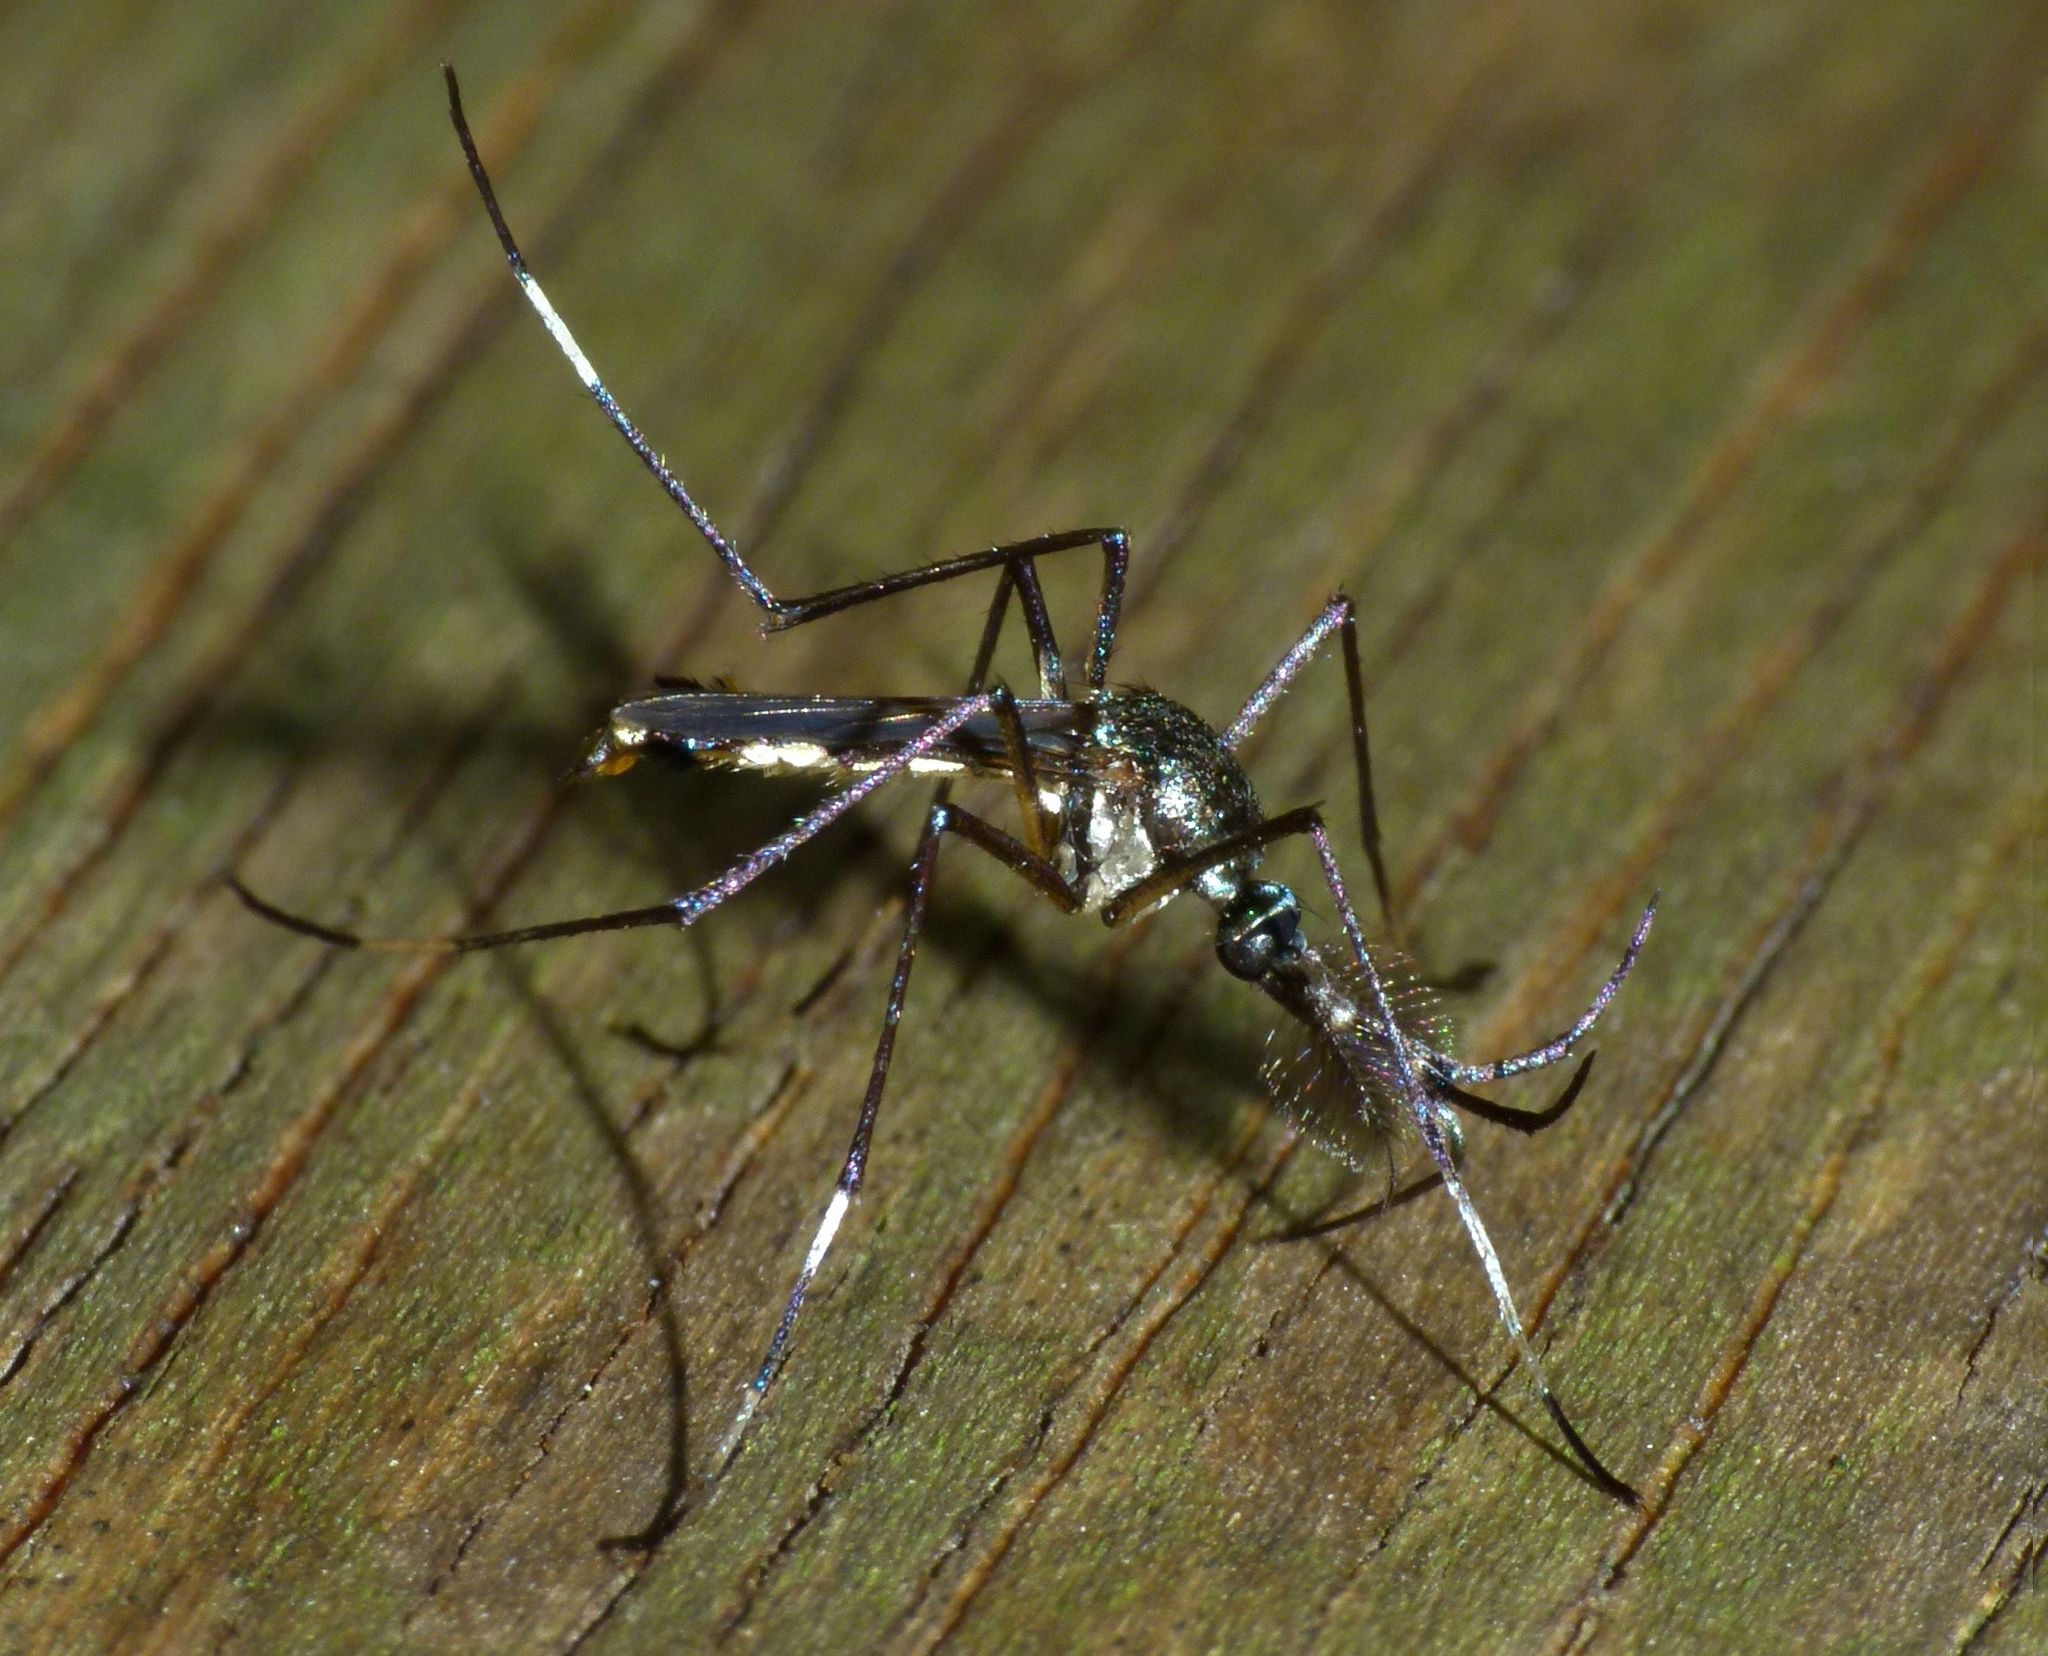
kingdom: Animalia
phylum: Arthropoda
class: Insecta
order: Diptera
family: Culicidae
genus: Toxorhynchites
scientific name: Toxorhynchites speciosus
